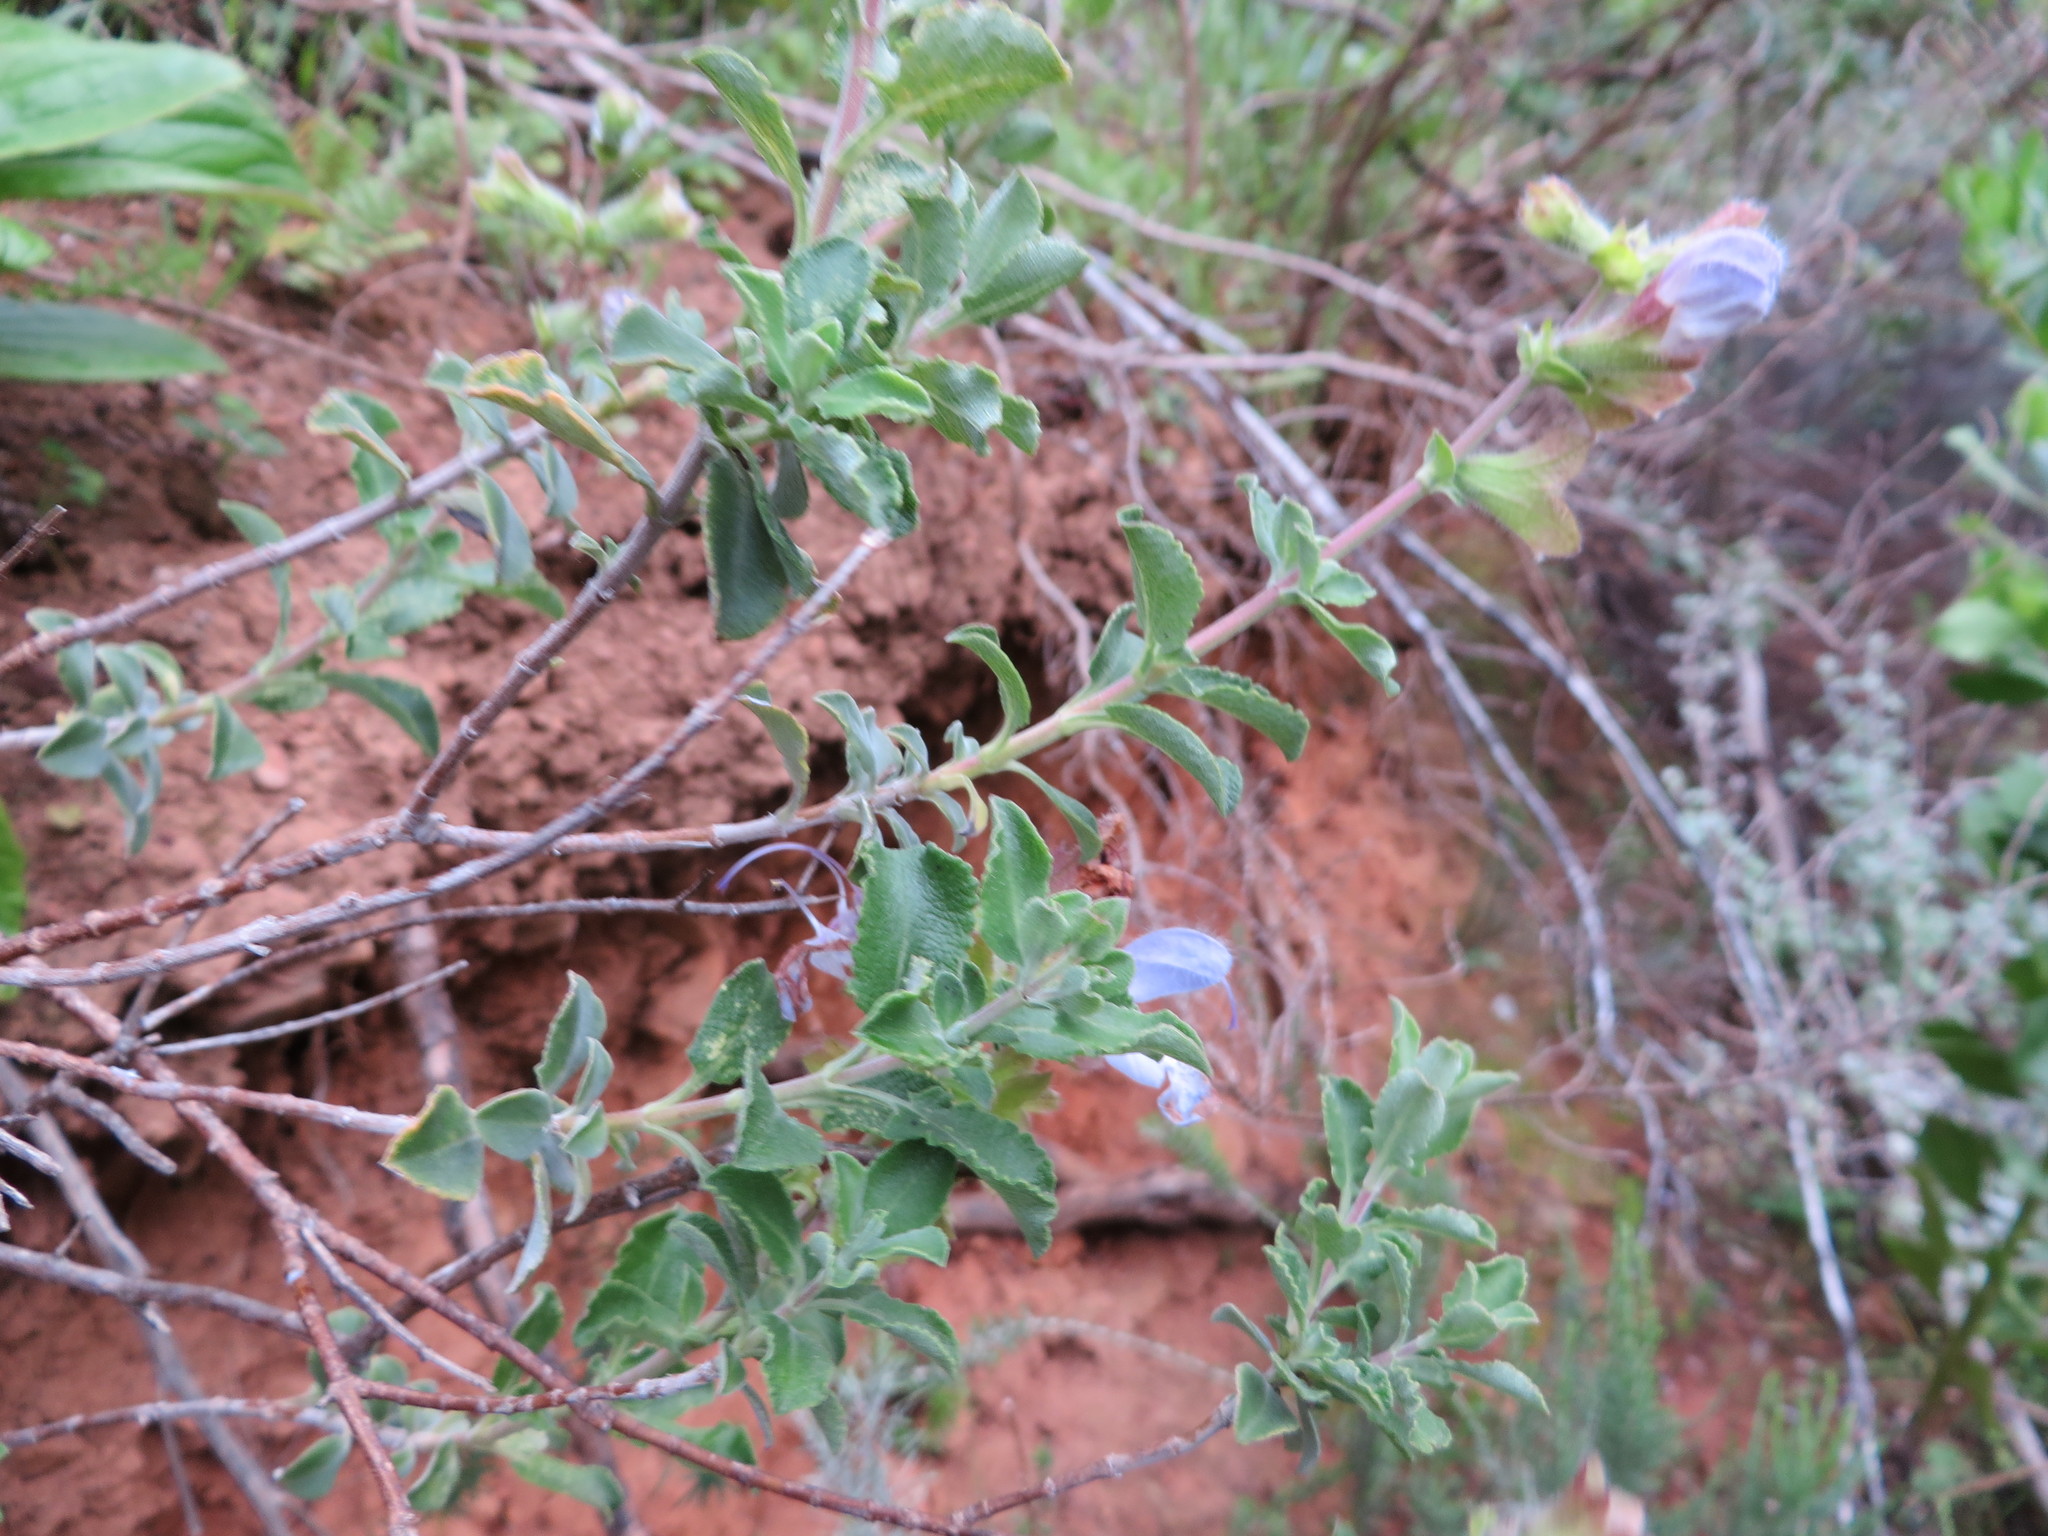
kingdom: Plantae
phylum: Tracheophyta
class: Magnoliopsida
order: Lamiales
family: Lamiaceae
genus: Salvia
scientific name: Salvia africana
